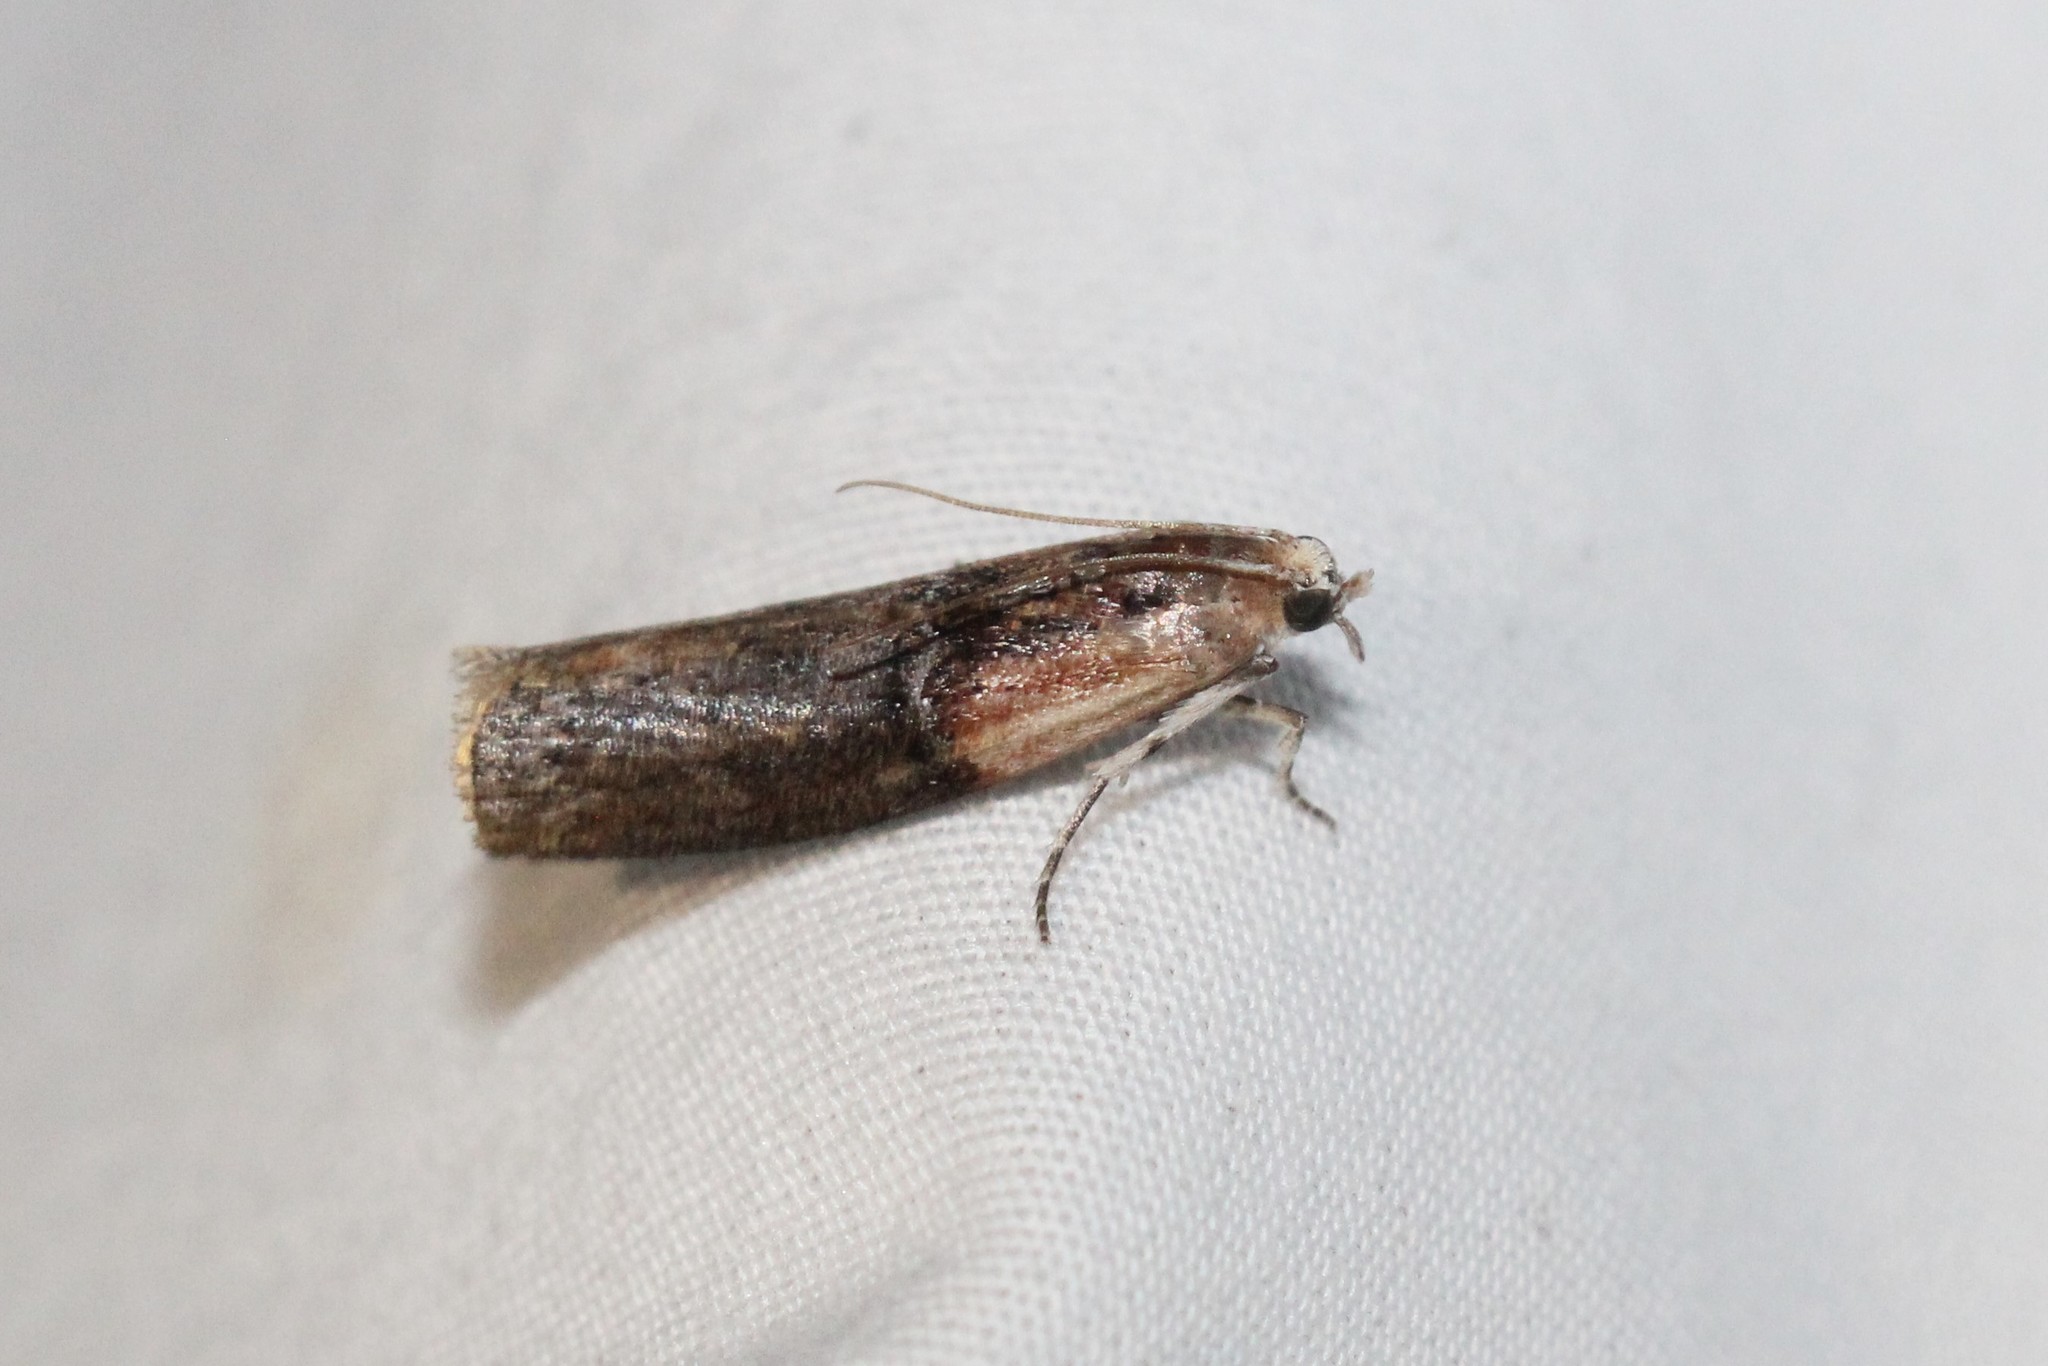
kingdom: Animalia
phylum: Arthropoda
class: Insecta
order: Lepidoptera
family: Pyralidae
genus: Sciota
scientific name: Sciota basilaris
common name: Yellow-shouldered leafroller
